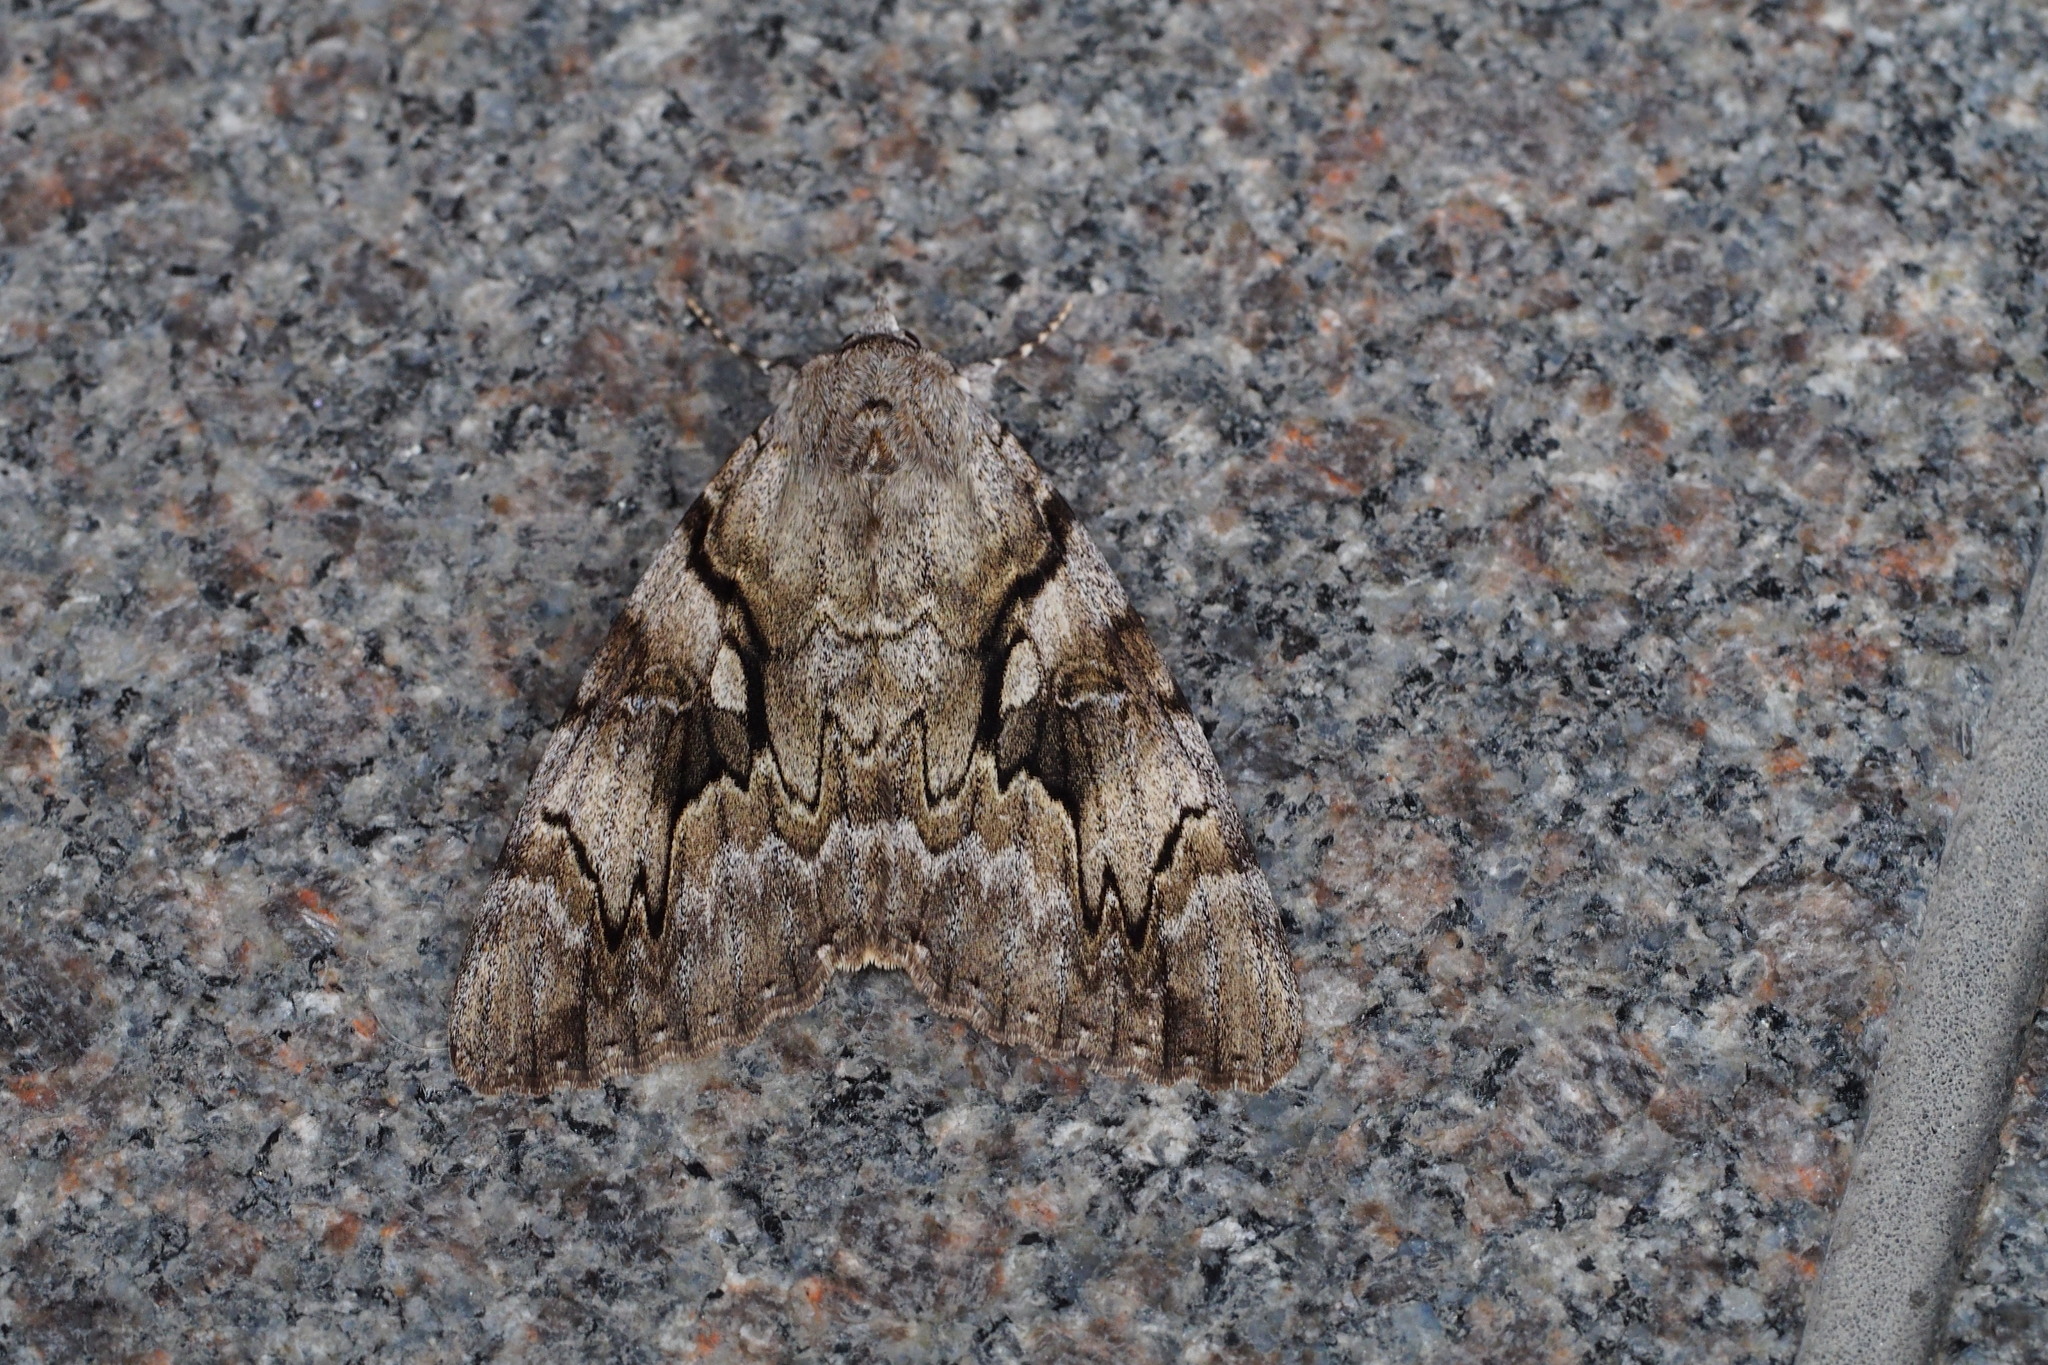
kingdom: Animalia
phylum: Arthropoda
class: Insecta
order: Lepidoptera
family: Erebidae
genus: Catocala
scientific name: Catocala lara
